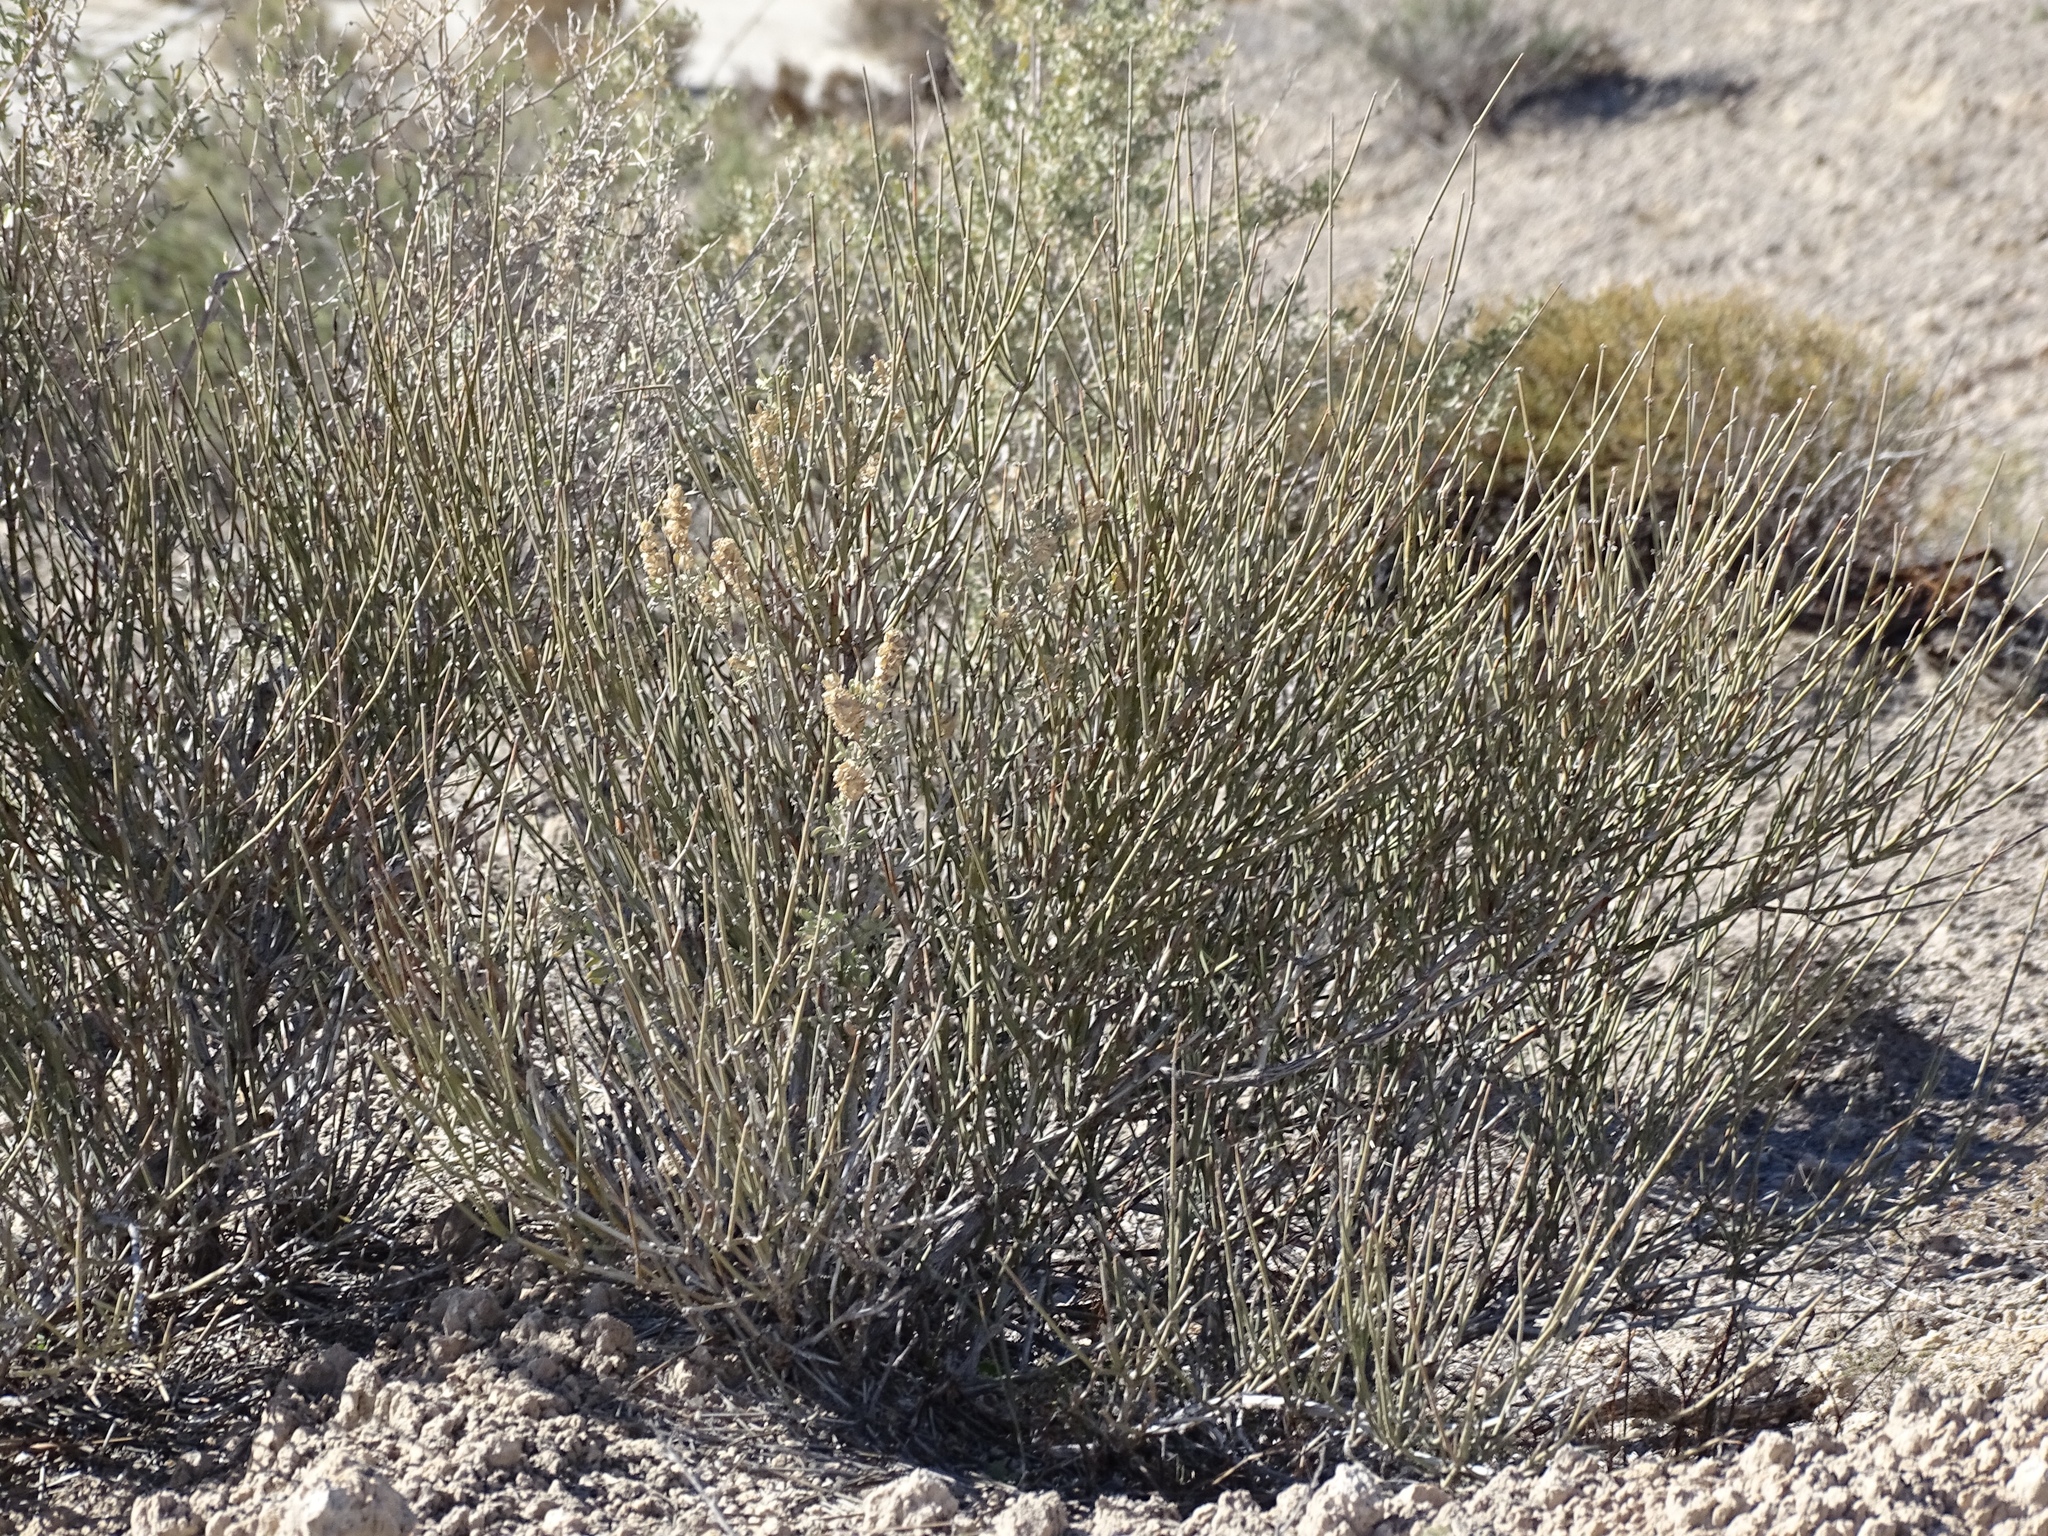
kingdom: Plantae
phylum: Tracheophyta
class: Gnetopsida
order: Ephedrales
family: Ephedraceae
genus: Ephedra
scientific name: Ephedra trifurca
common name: Mexican-tea
